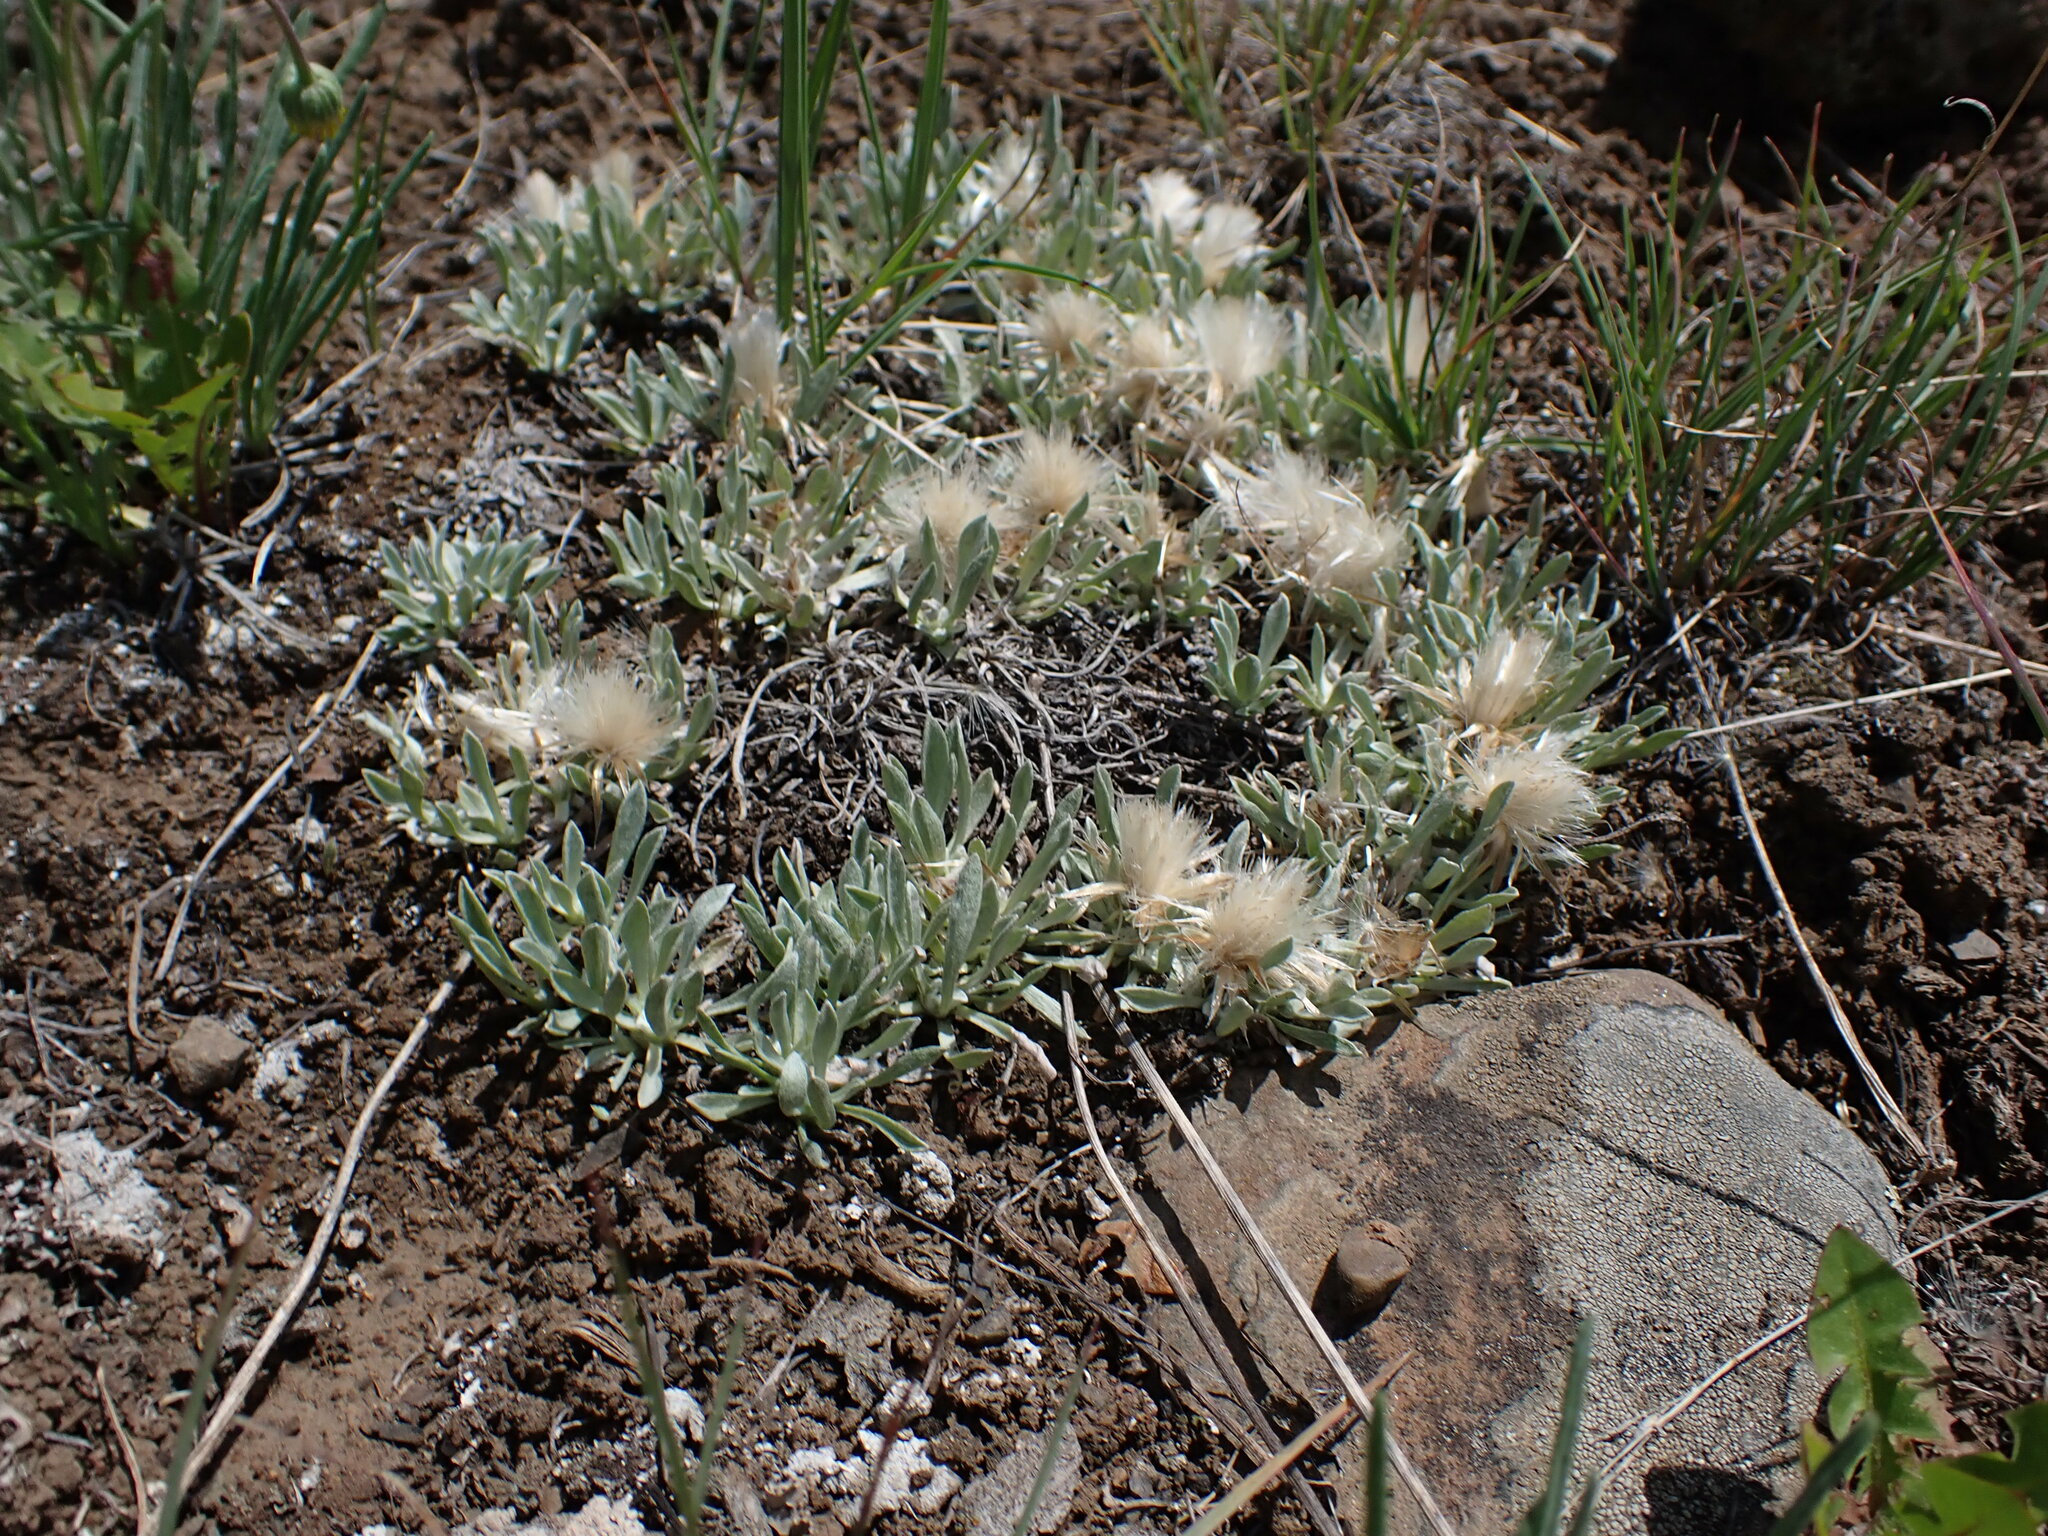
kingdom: Plantae
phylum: Tracheophyta
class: Magnoliopsida
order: Asterales
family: Asteraceae
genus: Antennaria
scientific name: Antennaria dimorpha
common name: Cushion pussytoes
